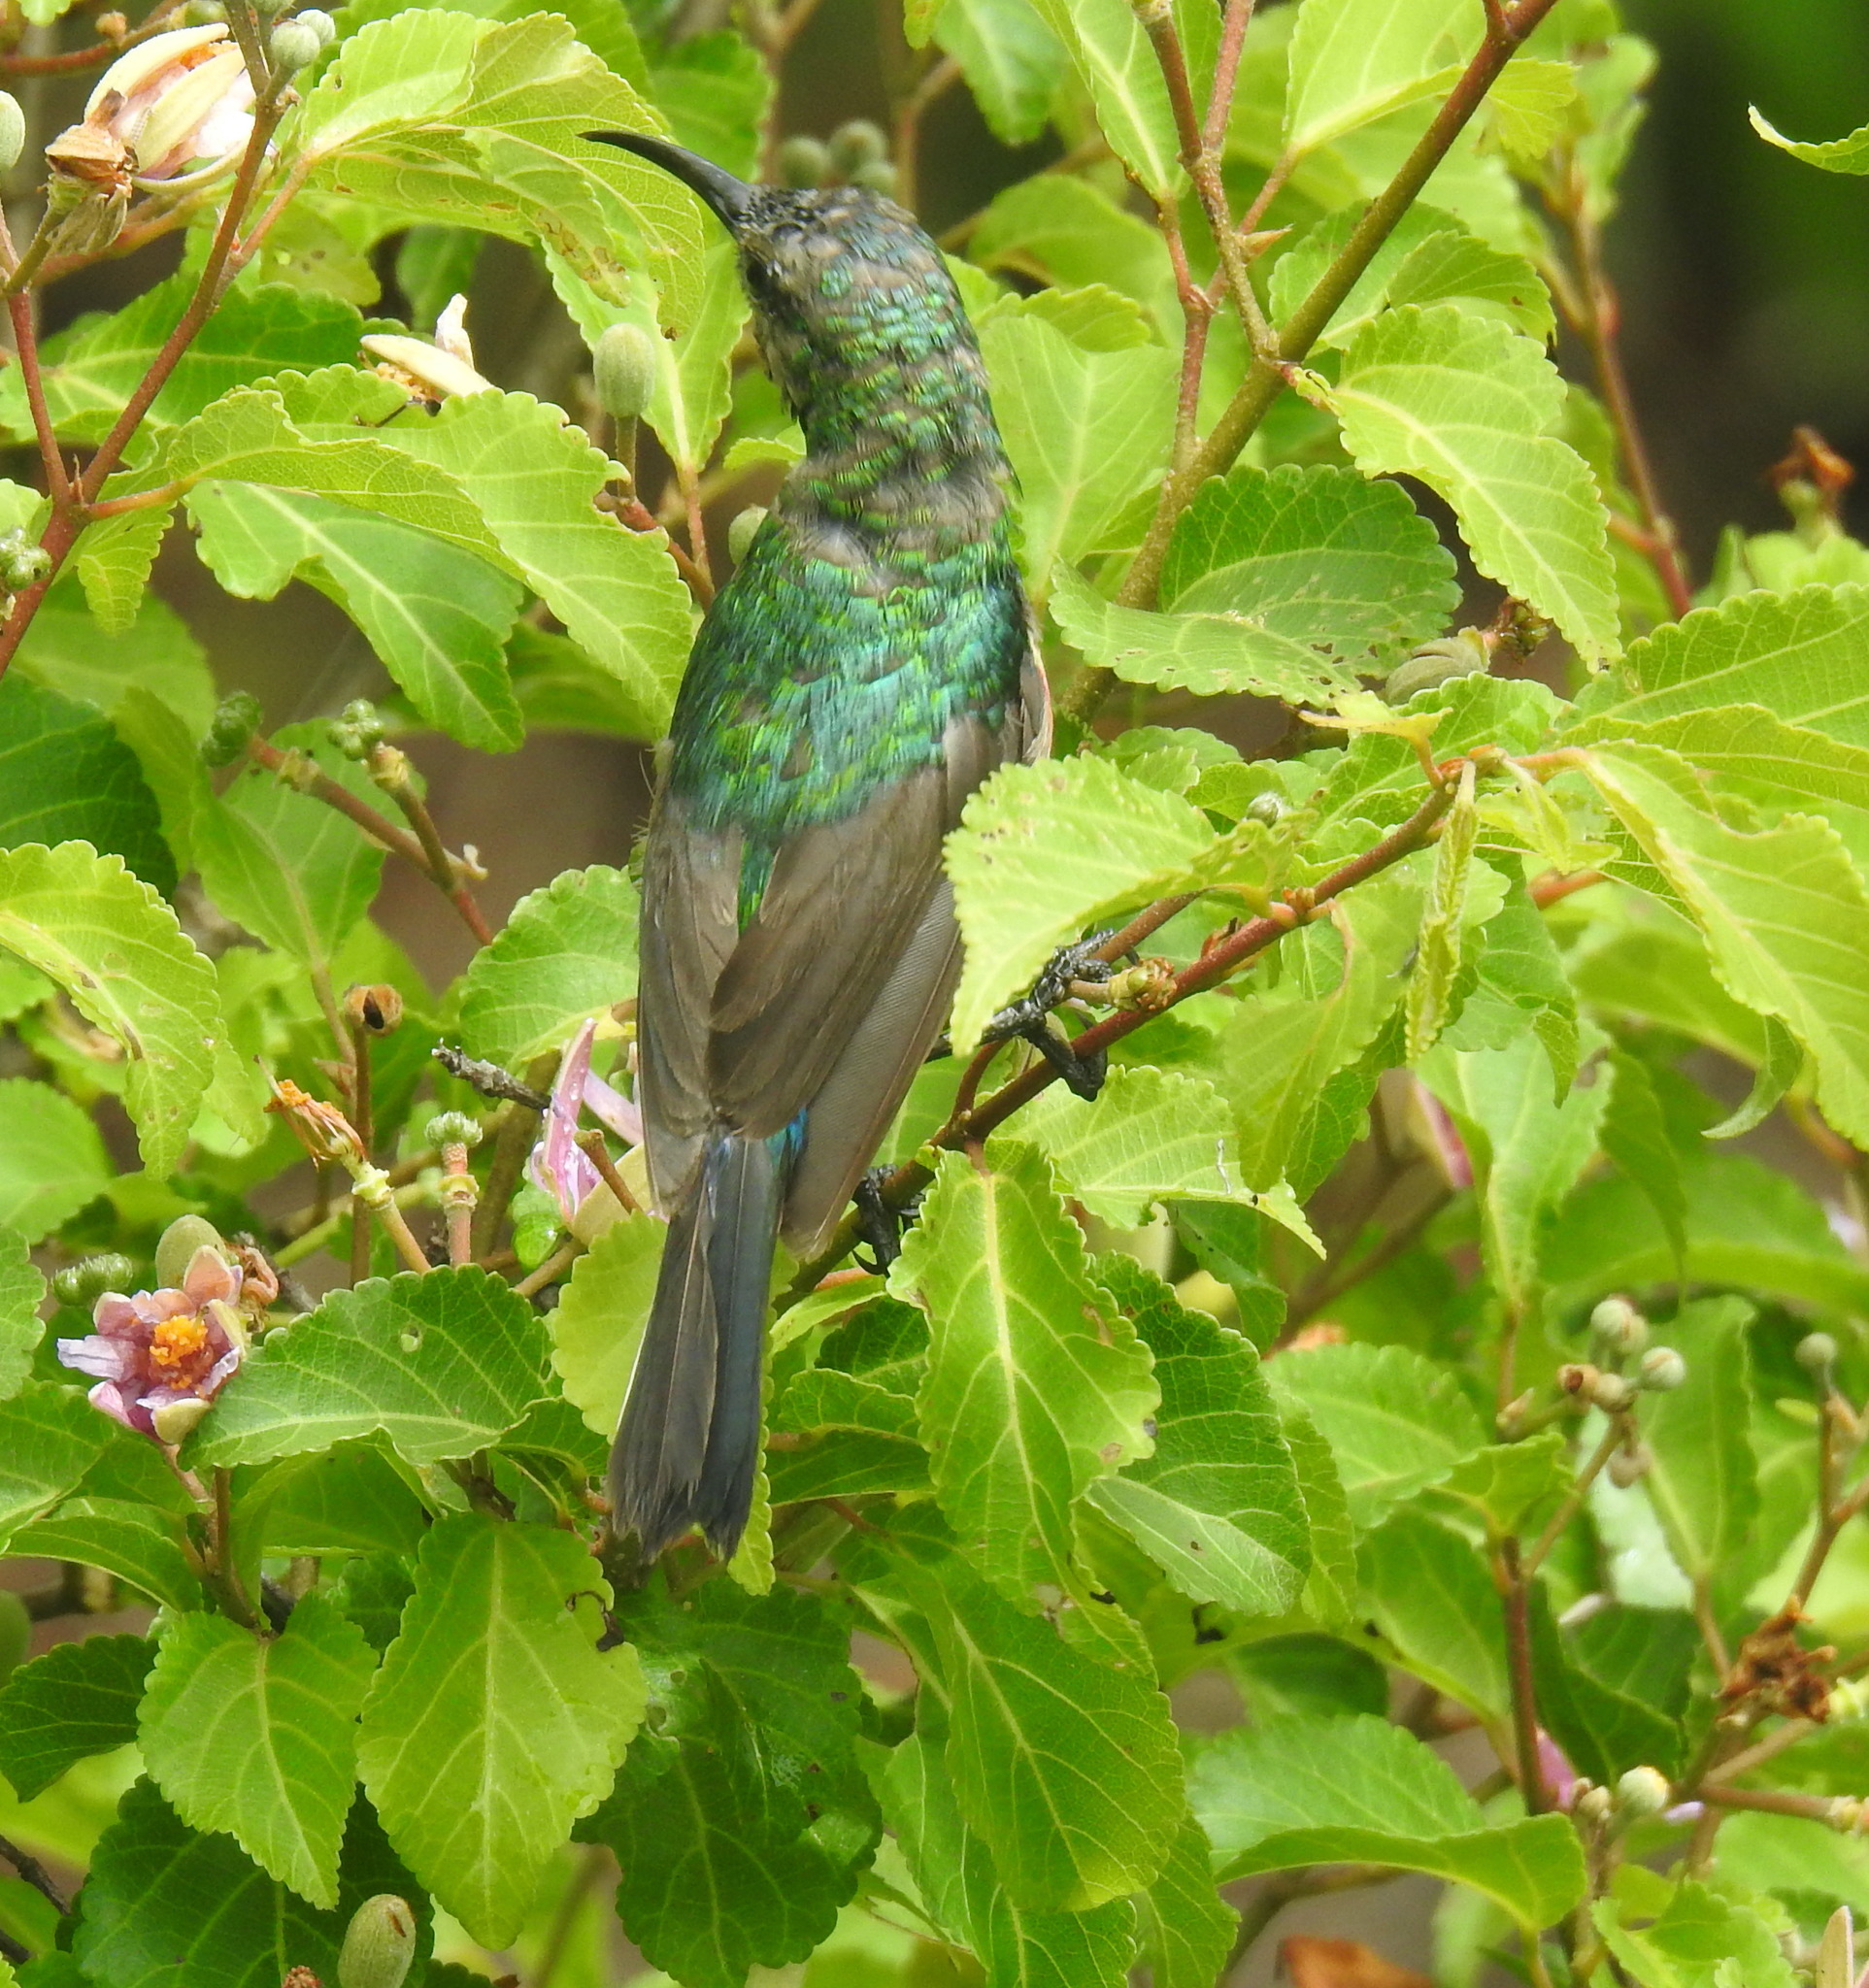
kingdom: Animalia
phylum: Chordata
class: Aves
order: Passeriformes
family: Nectariniidae
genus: Cinnyris
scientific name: Cinnyris chalybeus
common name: Southern double-collared sunbird
